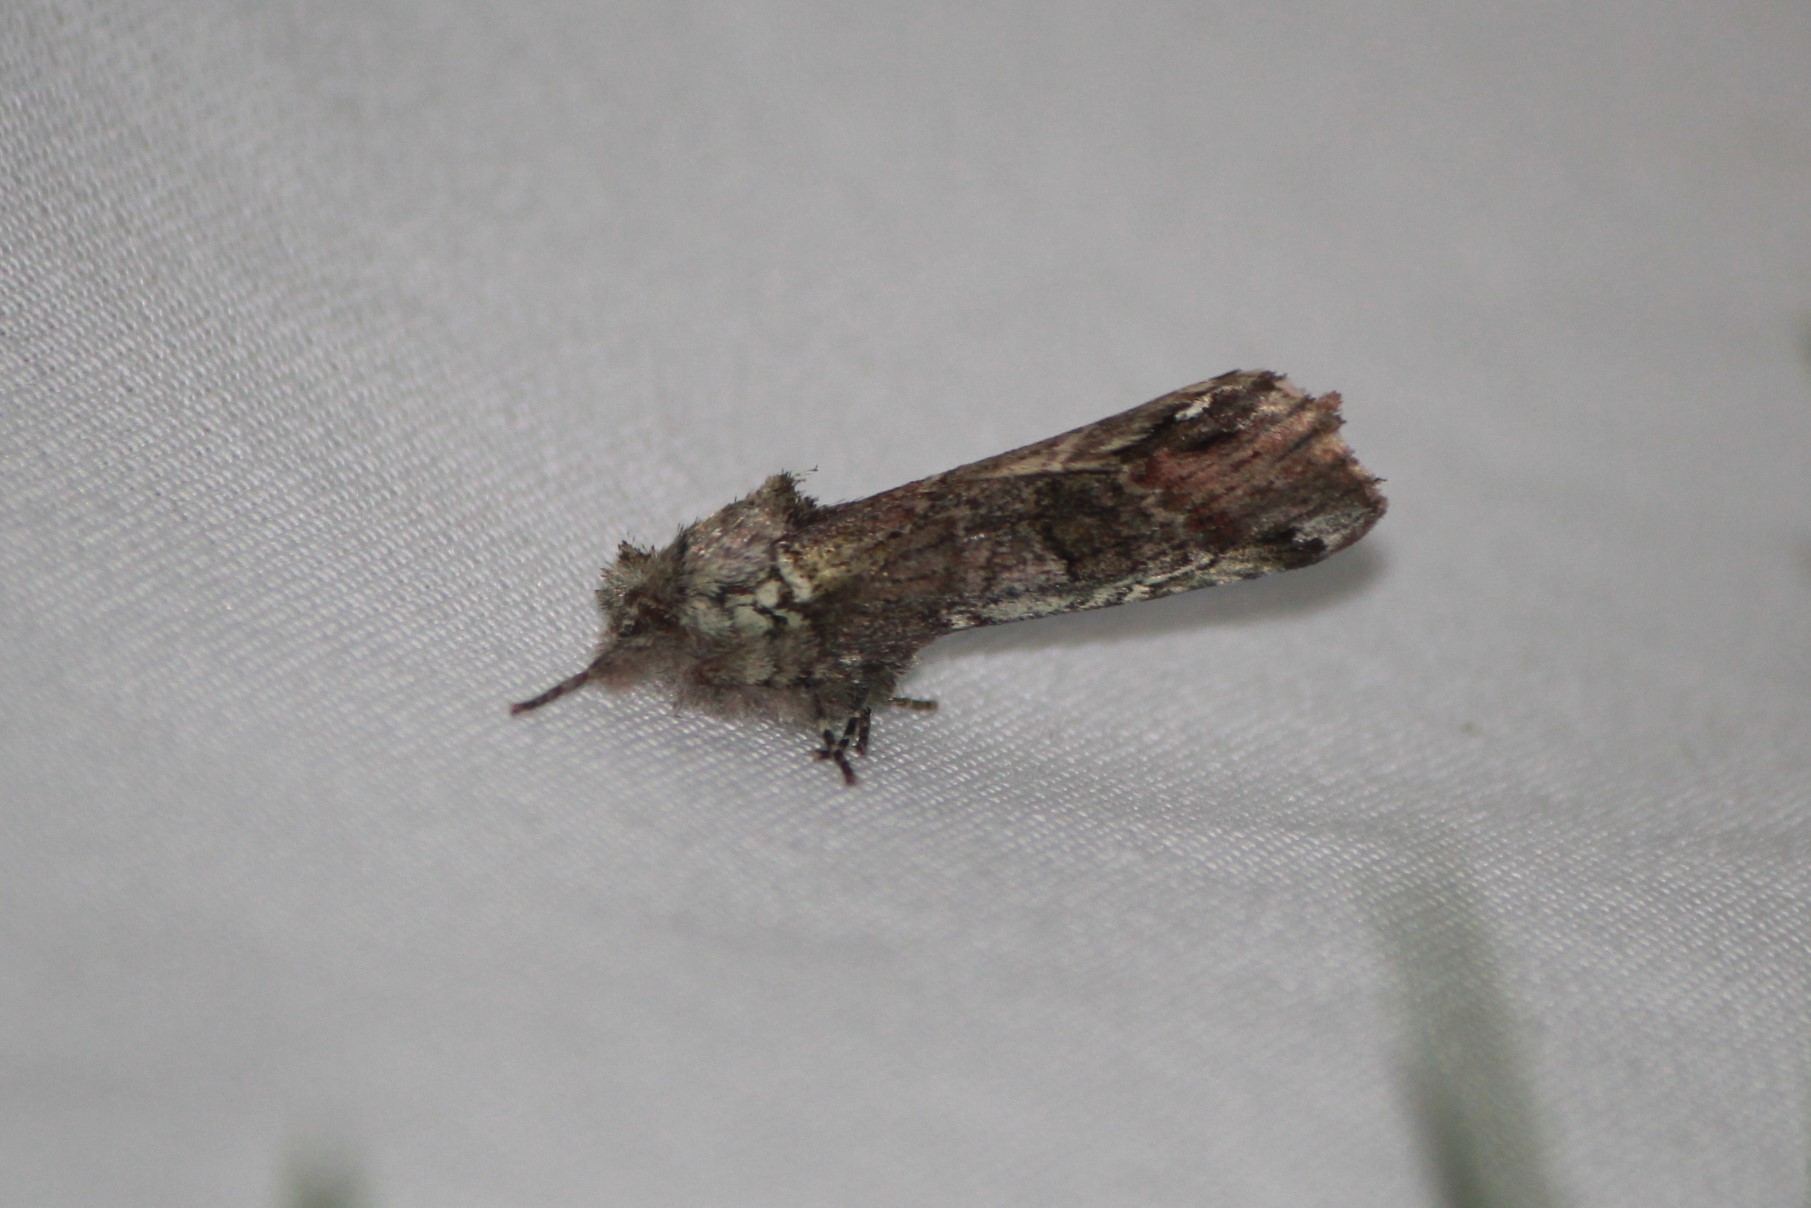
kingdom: Animalia
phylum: Arthropoda
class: Insecta
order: Lepidoptera
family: Notodontidae
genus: Schizura
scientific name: Schizura
